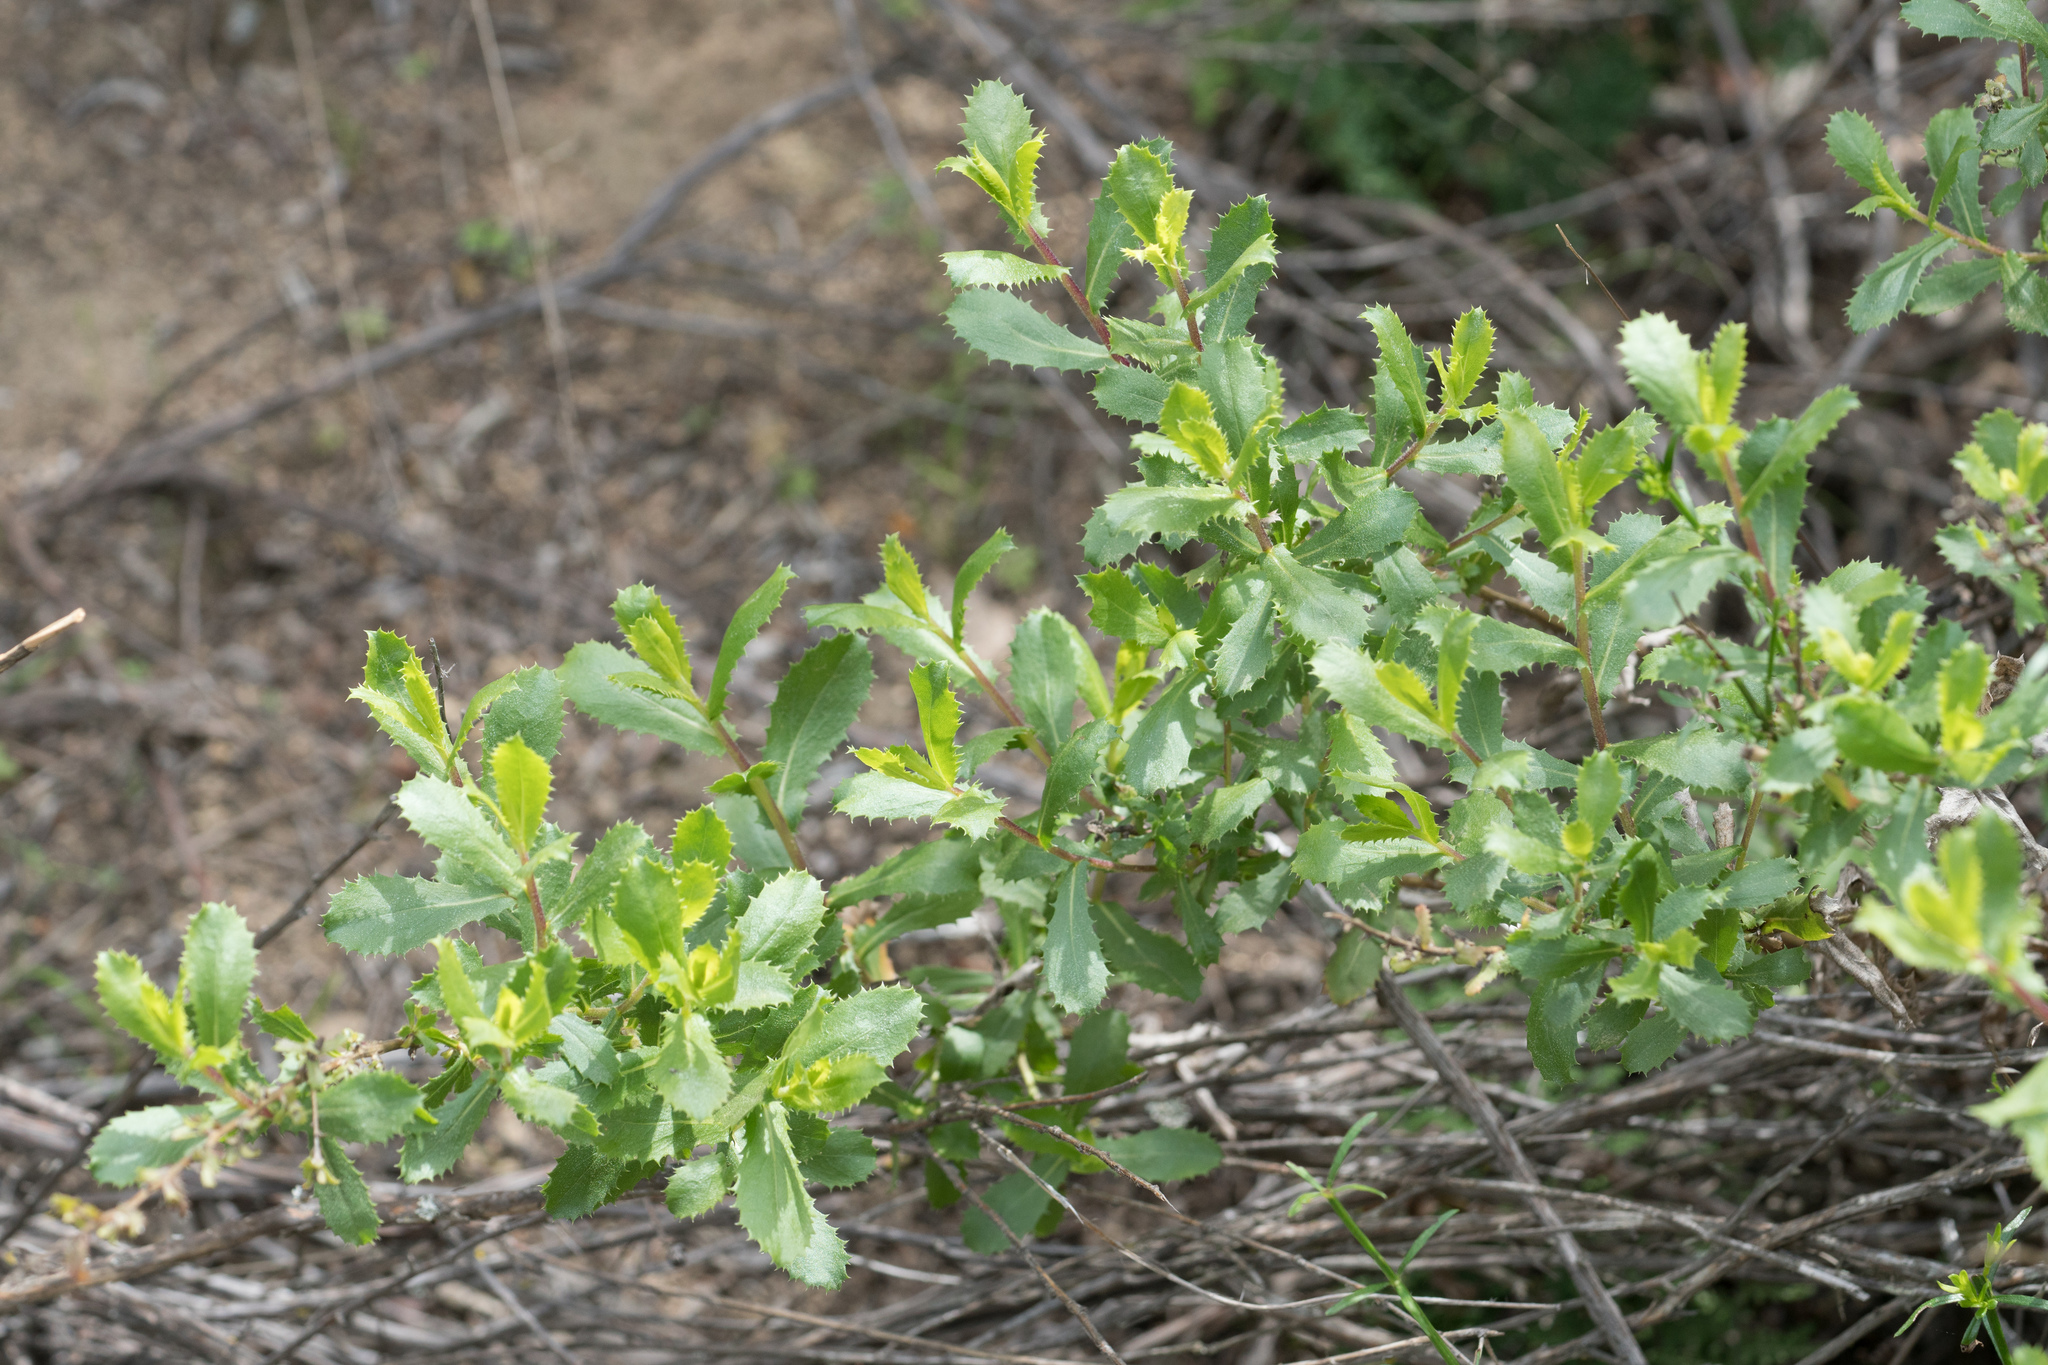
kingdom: Plantae
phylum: Tracheophyta
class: Magnoliopsida
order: Asterales
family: Asteraceae
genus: Hazardia
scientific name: Hazardia squarrosa
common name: Saw-tooth goldenbush
